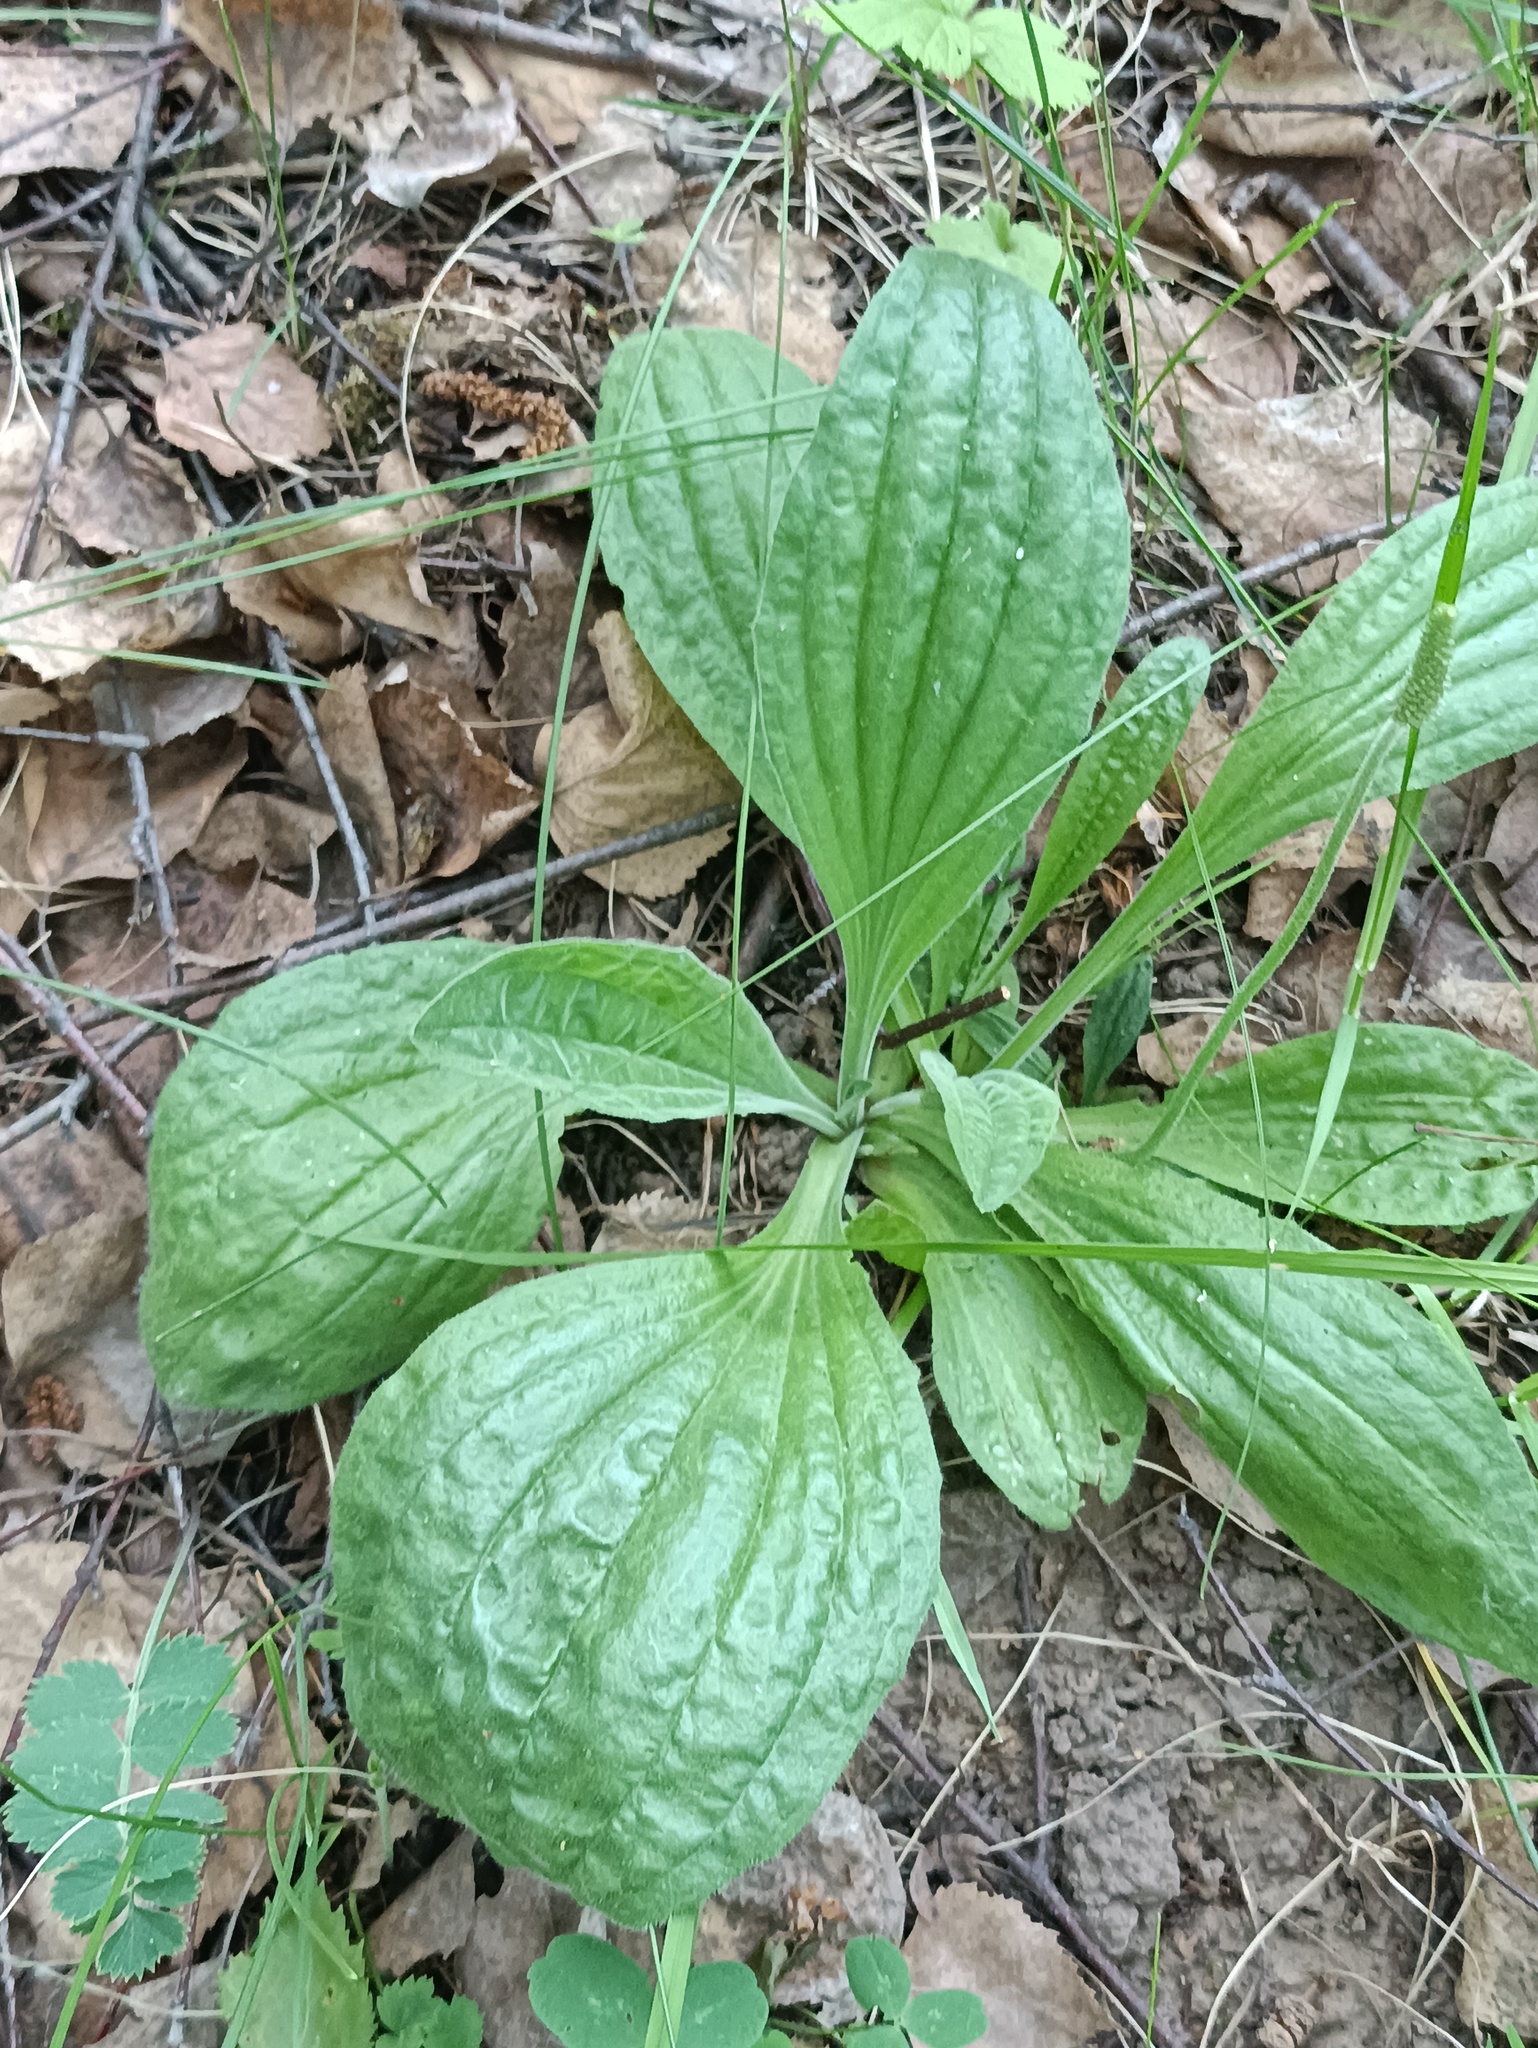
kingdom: Plantae
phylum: Tracheophyta
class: Magnoliopsida
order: Lamiales
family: Plantaginaceae
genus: Plantago
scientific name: Plantago urvillei
